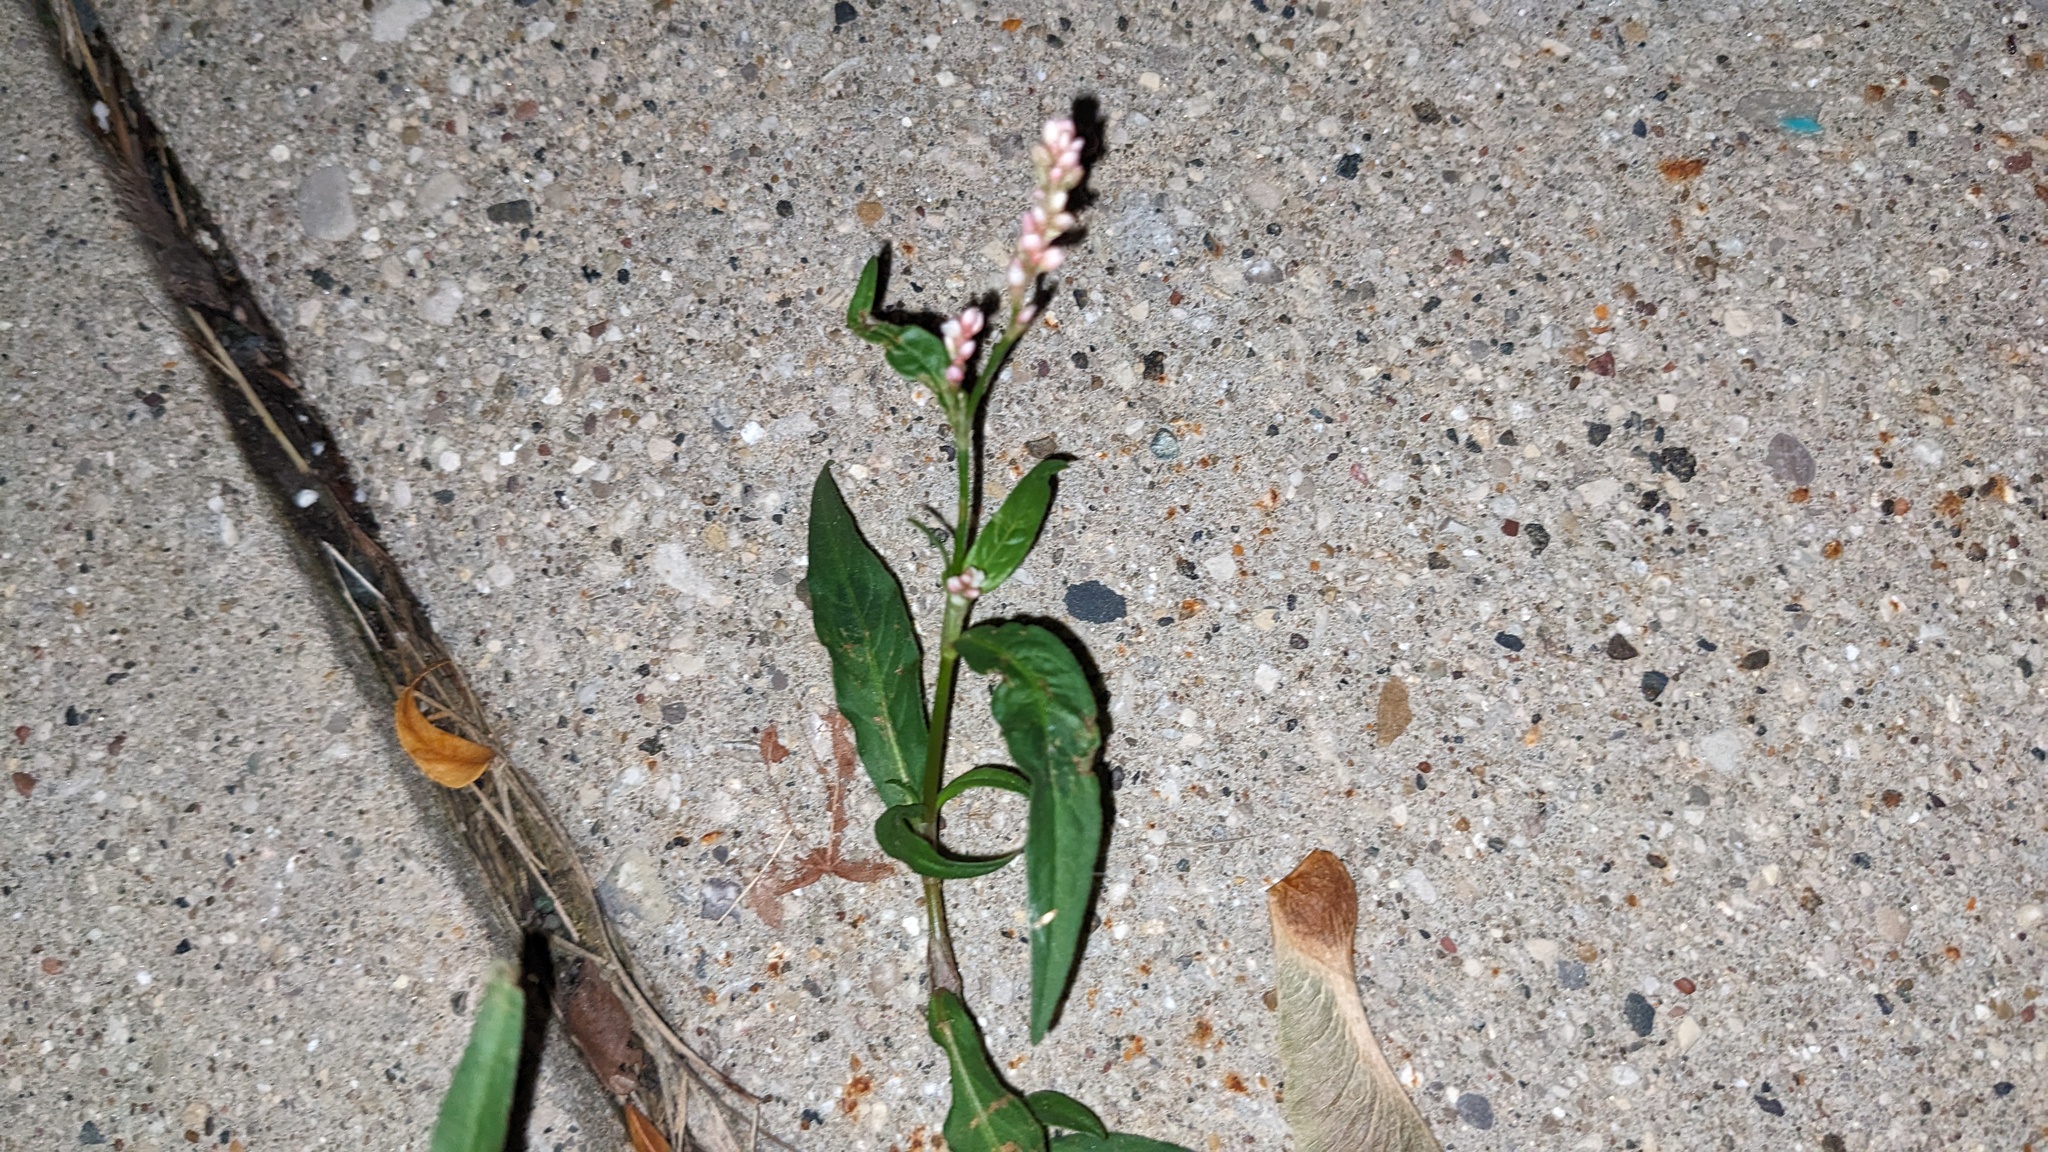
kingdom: Plantae
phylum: Tracheophyta
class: Magnoliopsida
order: Caryophyllales
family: Polygonaceae
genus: Persicaria
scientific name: Persicaria maculosa
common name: Redshank
